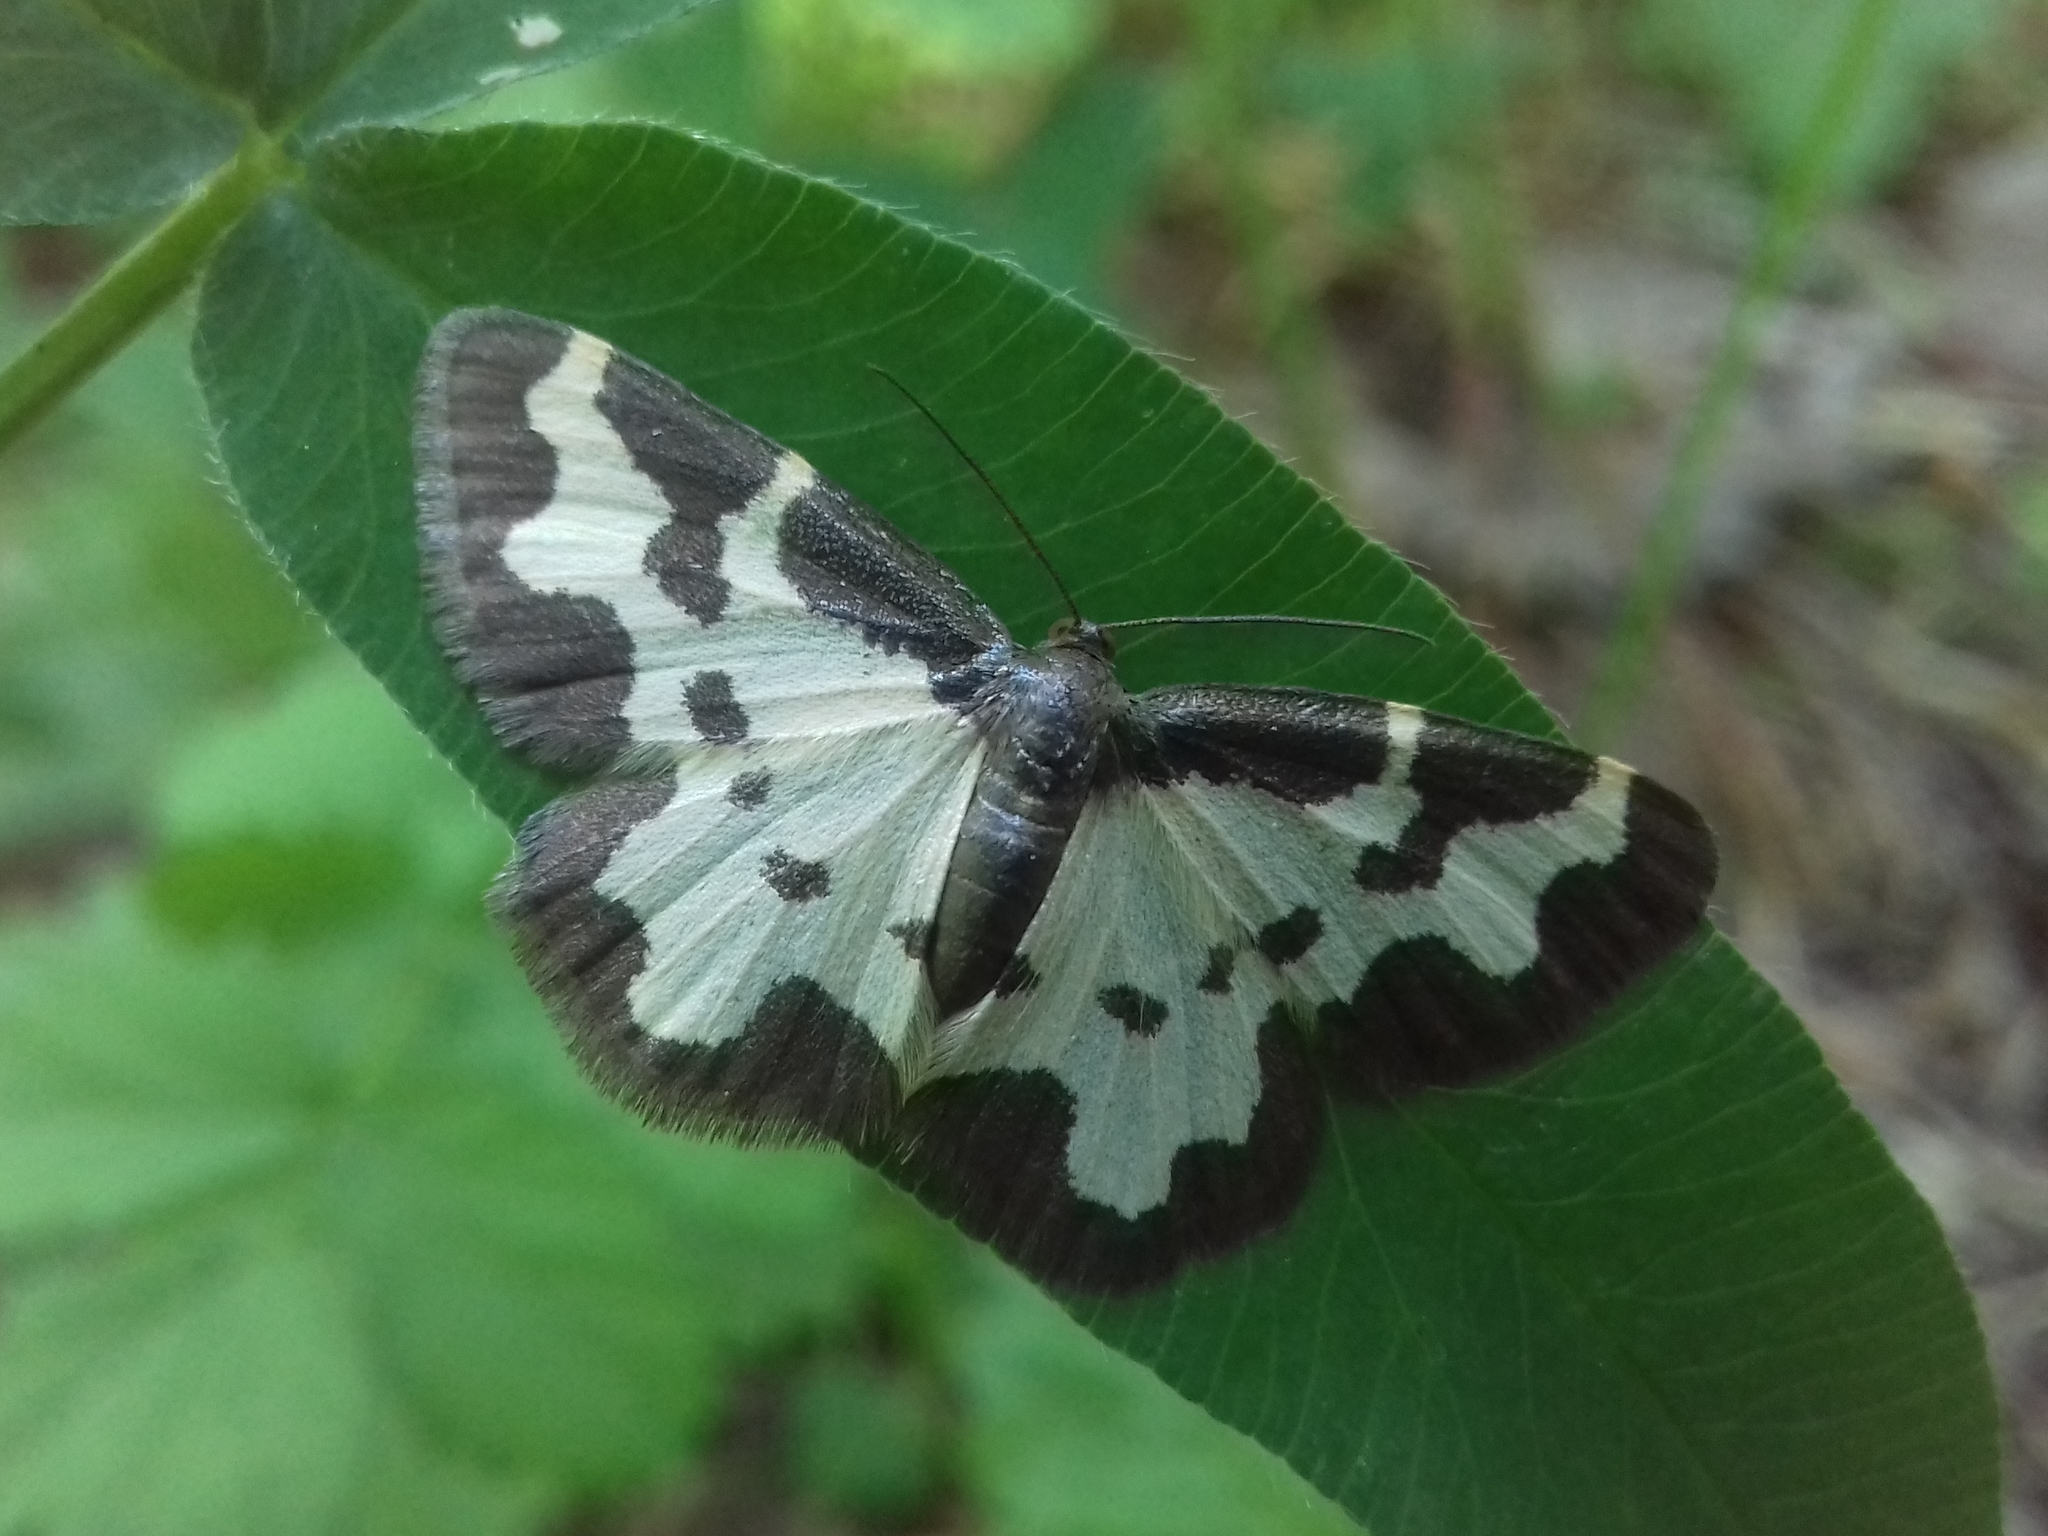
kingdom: Animalia
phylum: Arthropoda
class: Insecta
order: Lepidoptera
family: Geometridae
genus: Lomaspilis
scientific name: Lomaspilis marginata
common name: Clouded border
